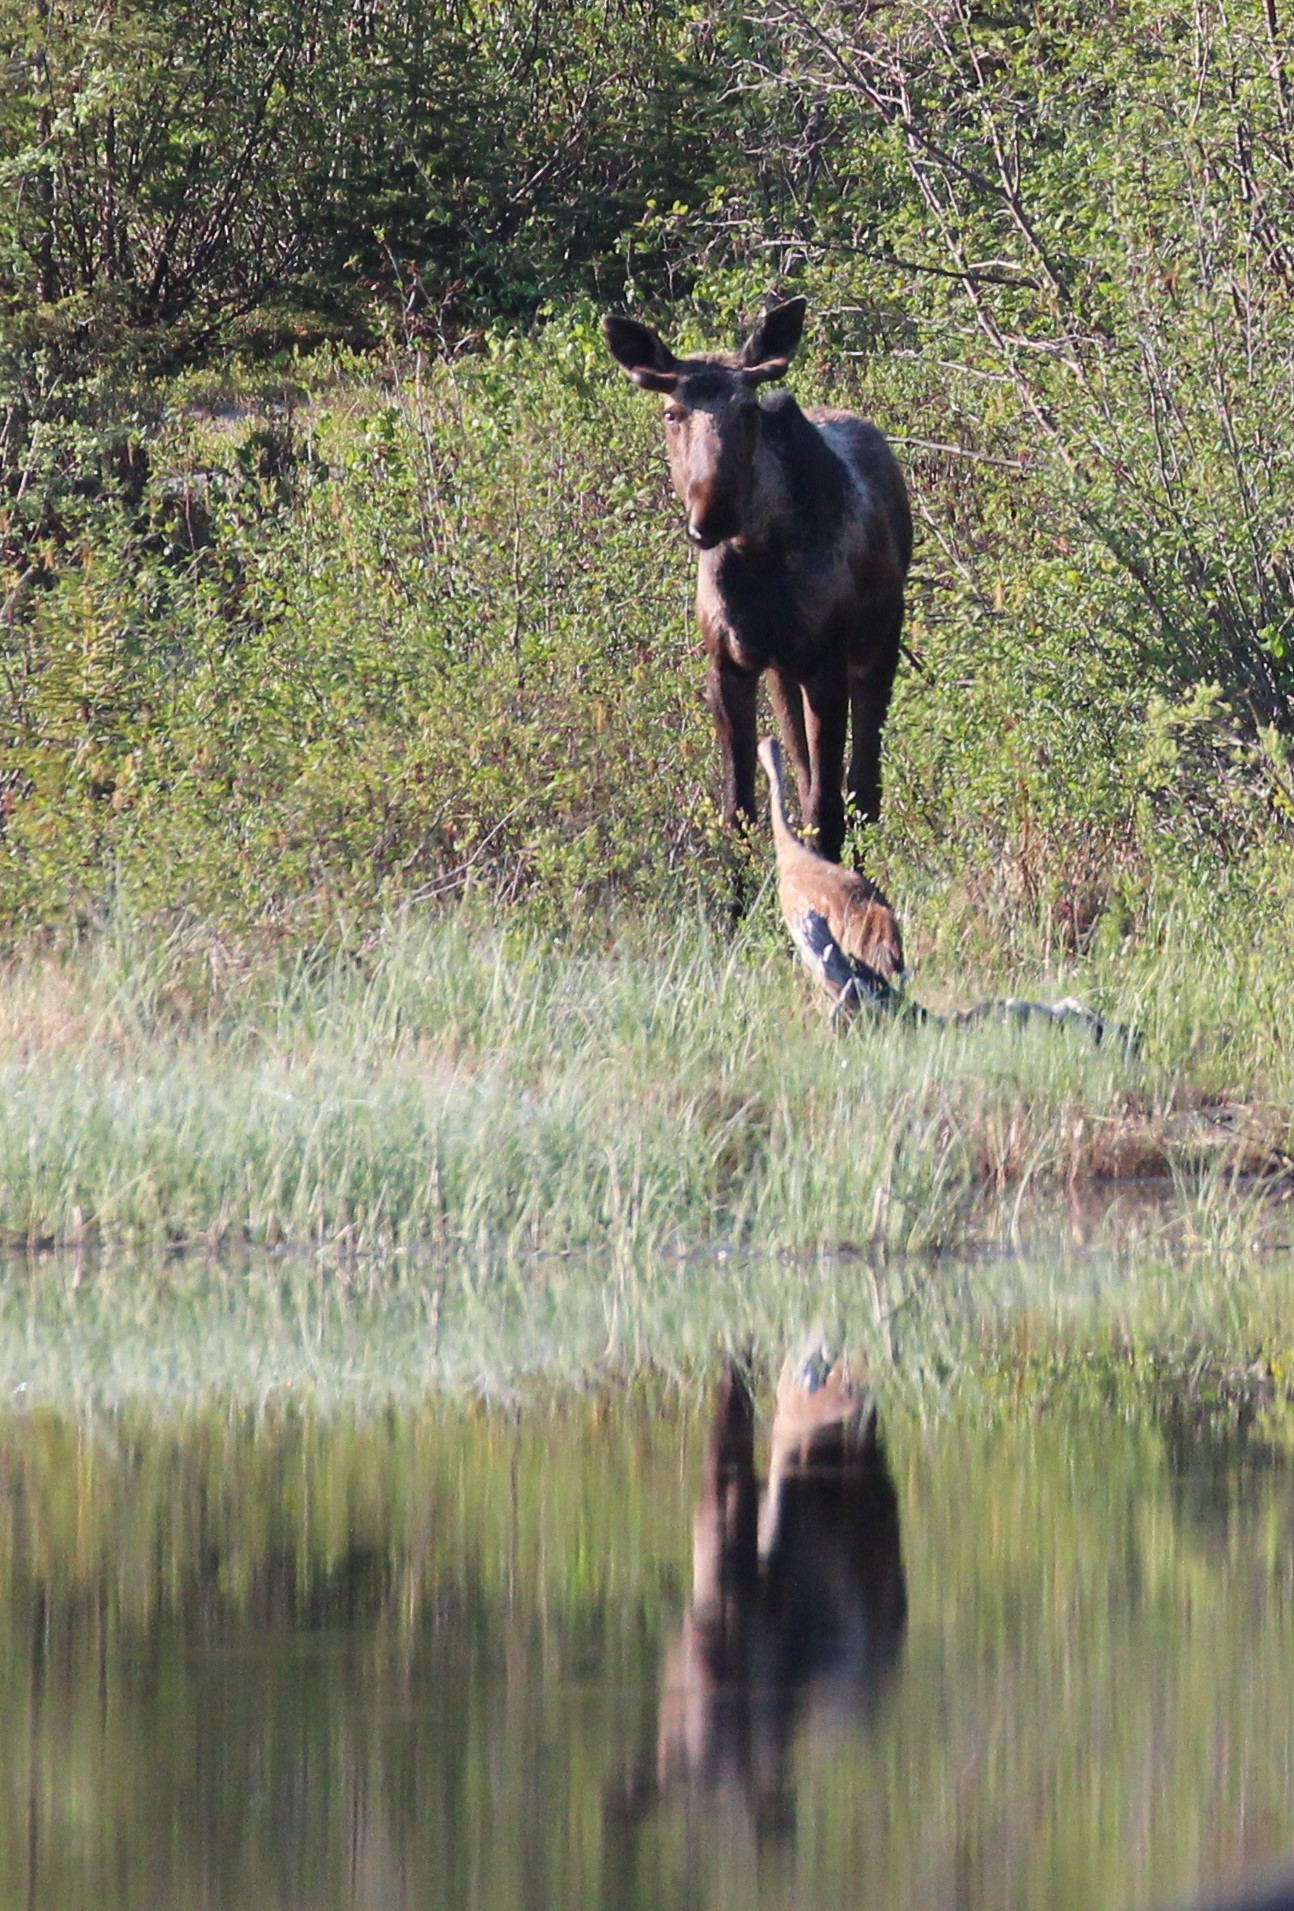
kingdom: Animalia
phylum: Chordata
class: Aves
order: Gruiformes
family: Gruidae
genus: Grus
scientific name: Grus canadensis
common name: Sandhill crane
